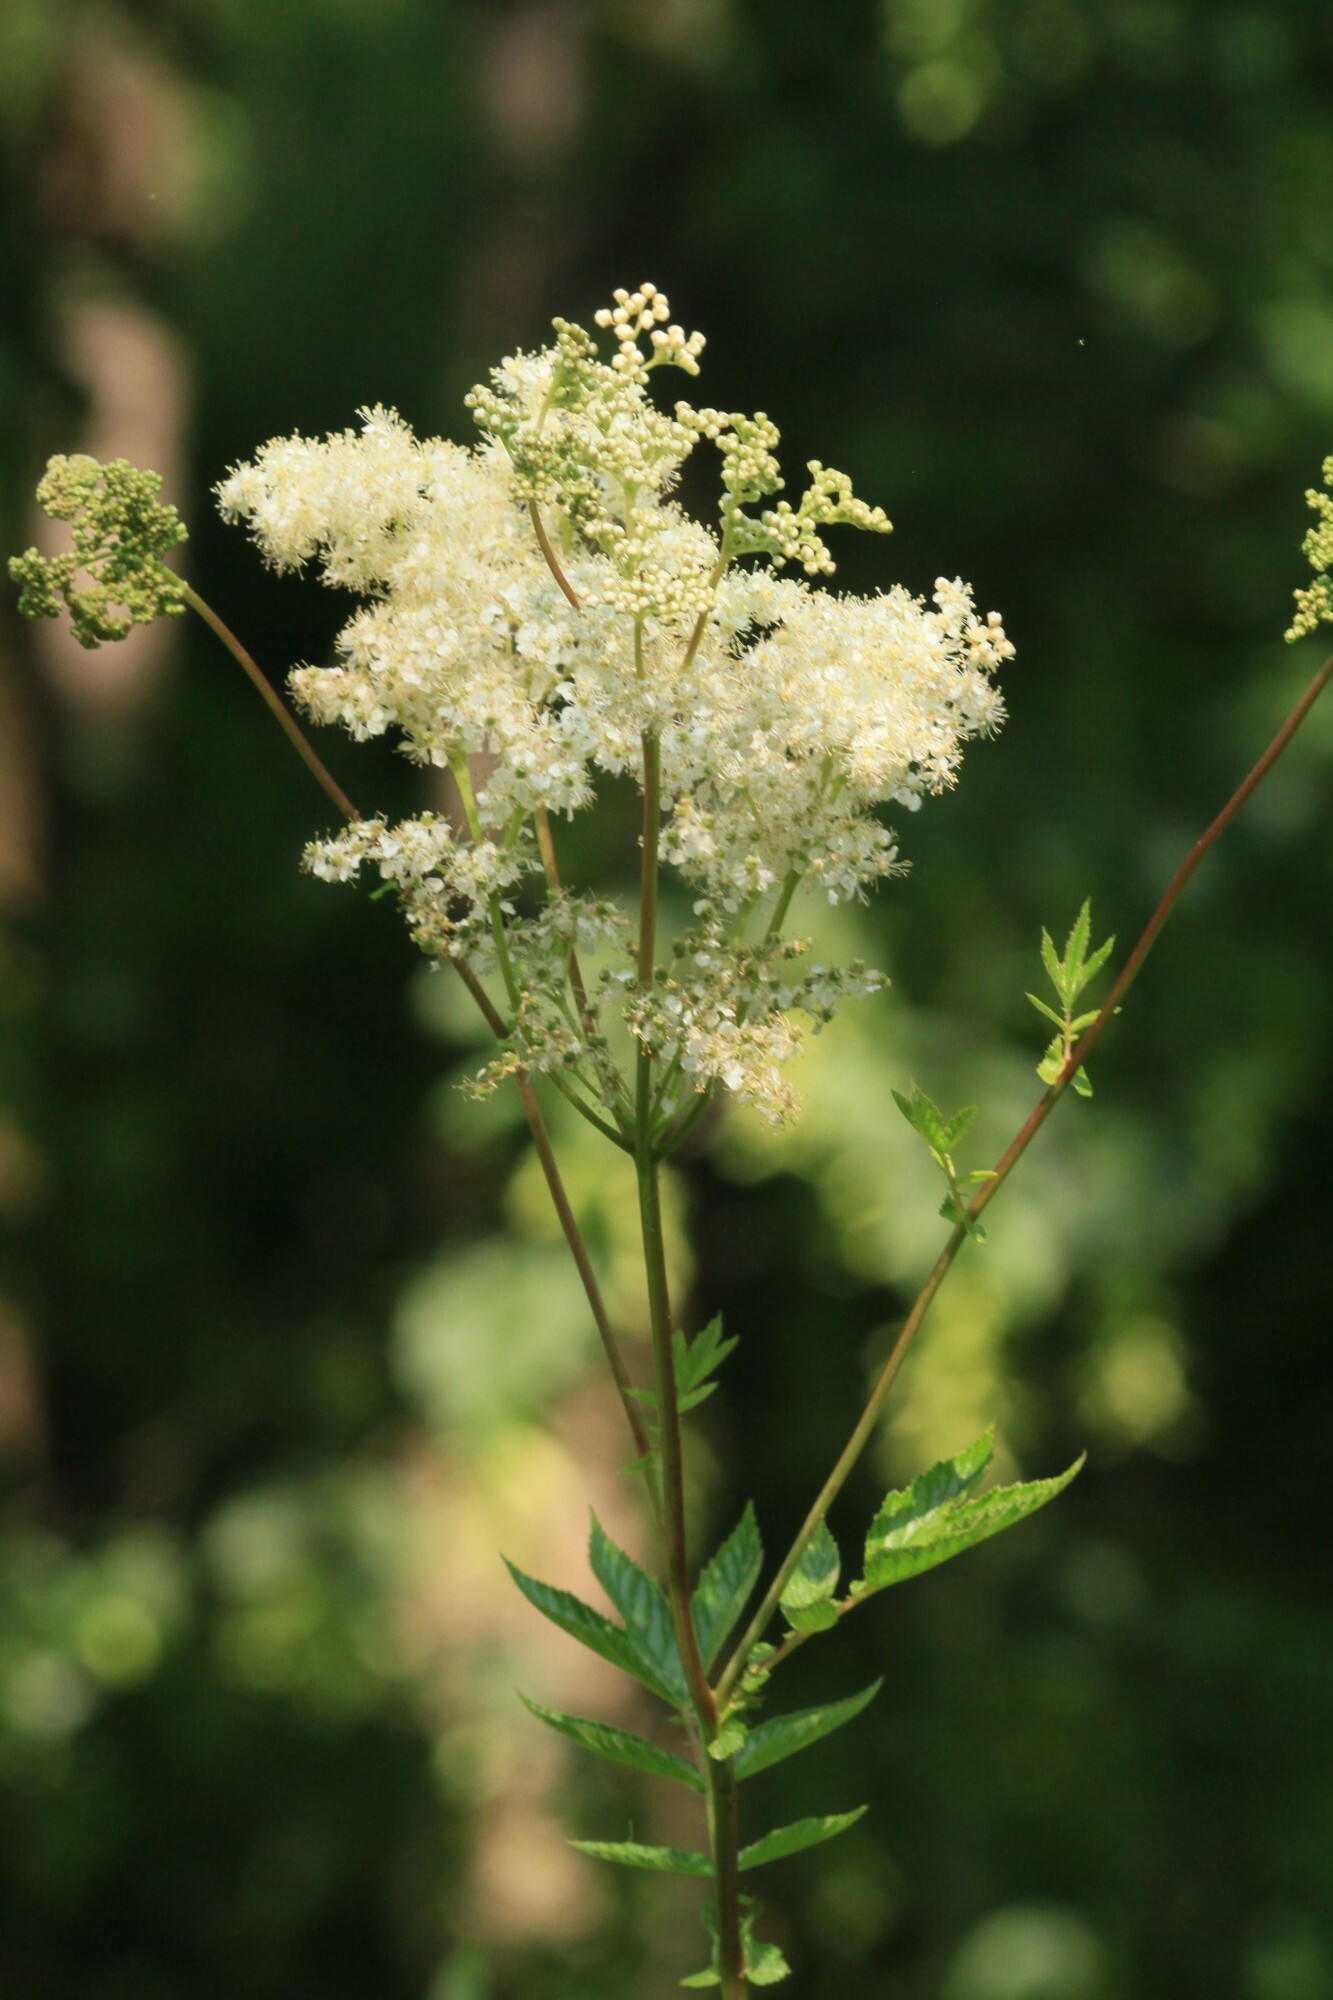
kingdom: Plantae
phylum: Tracheophyta
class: Magnoliopsida
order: Rosales
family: Rosaceae
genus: Filipendula
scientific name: Filipendula ulmaria
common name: Meadowsweet
